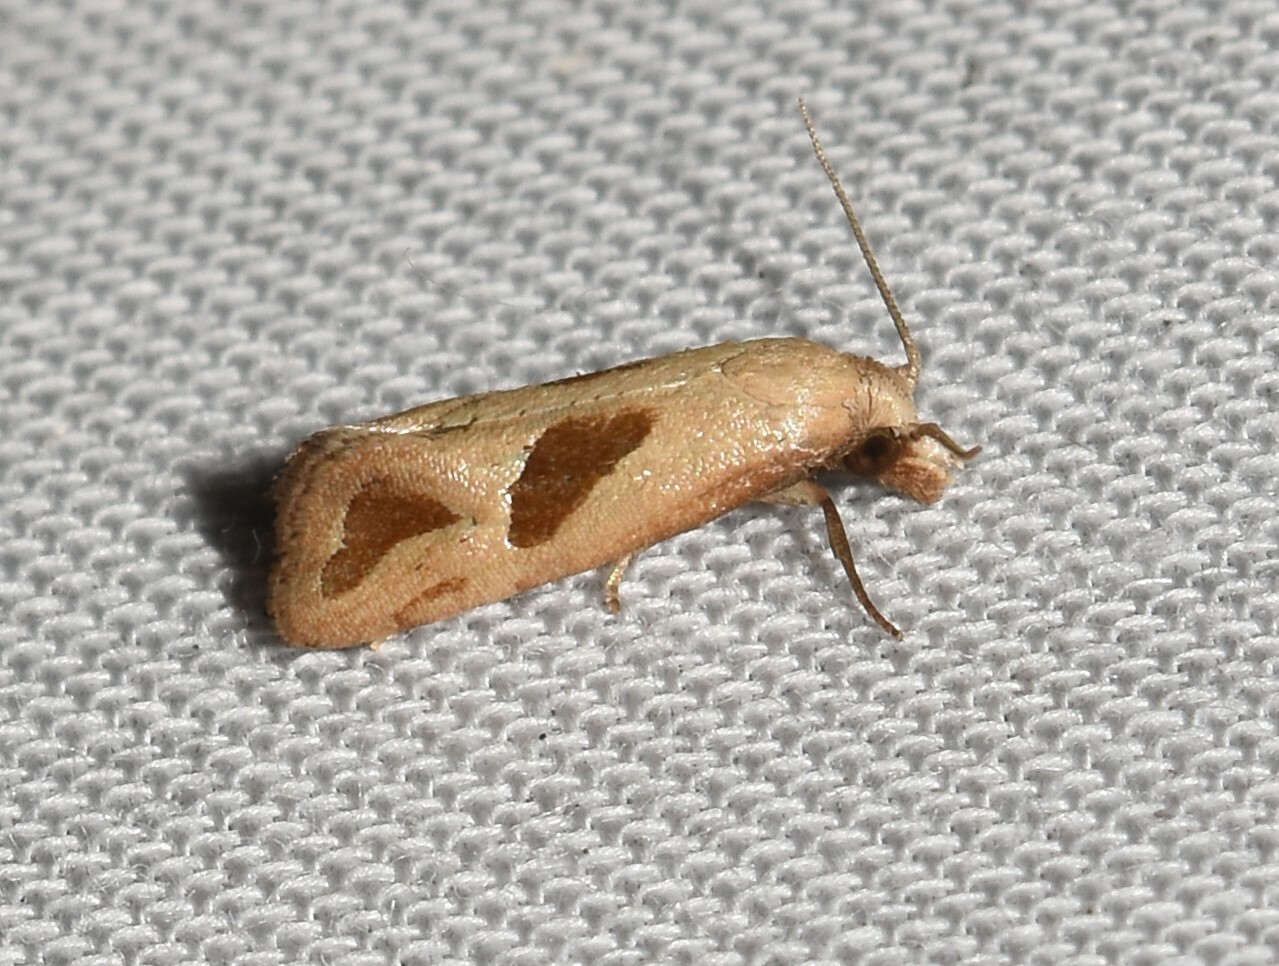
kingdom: Animalia
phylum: Arthropoda
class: Insecta
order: Lepidoptera
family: Tortricidae
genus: Eugnosta
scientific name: Eugnosta bimaculana
